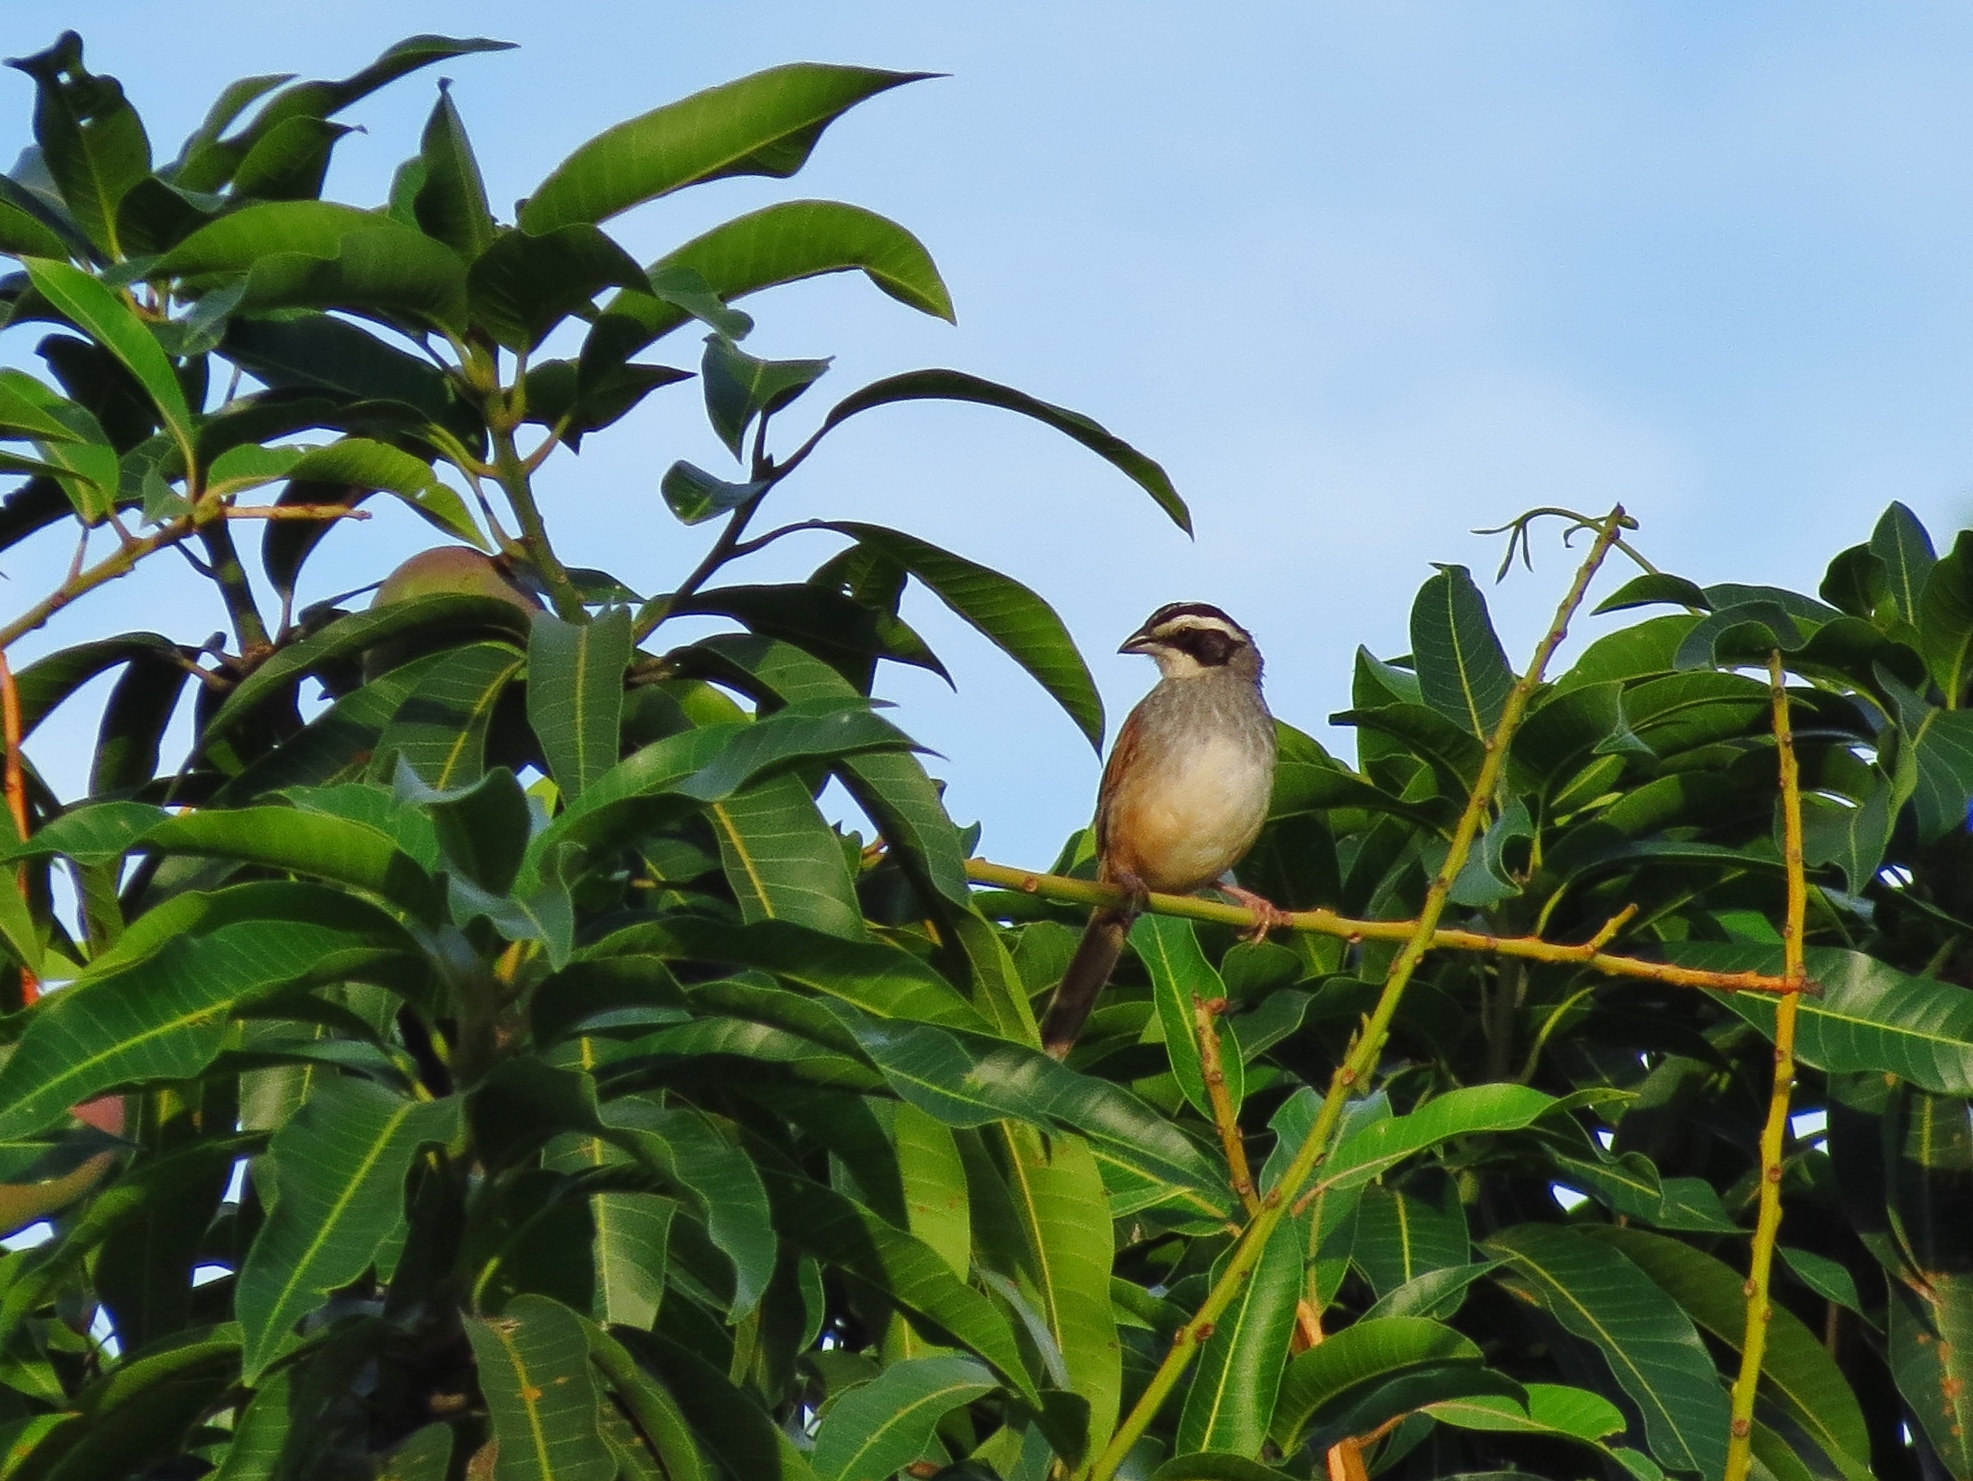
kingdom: Animalia
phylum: Chordata
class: Aves
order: Passeriformes
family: Passerellidae
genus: Peucaea
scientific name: Peucaea ruficauda
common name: Stripe-headed sparrow
